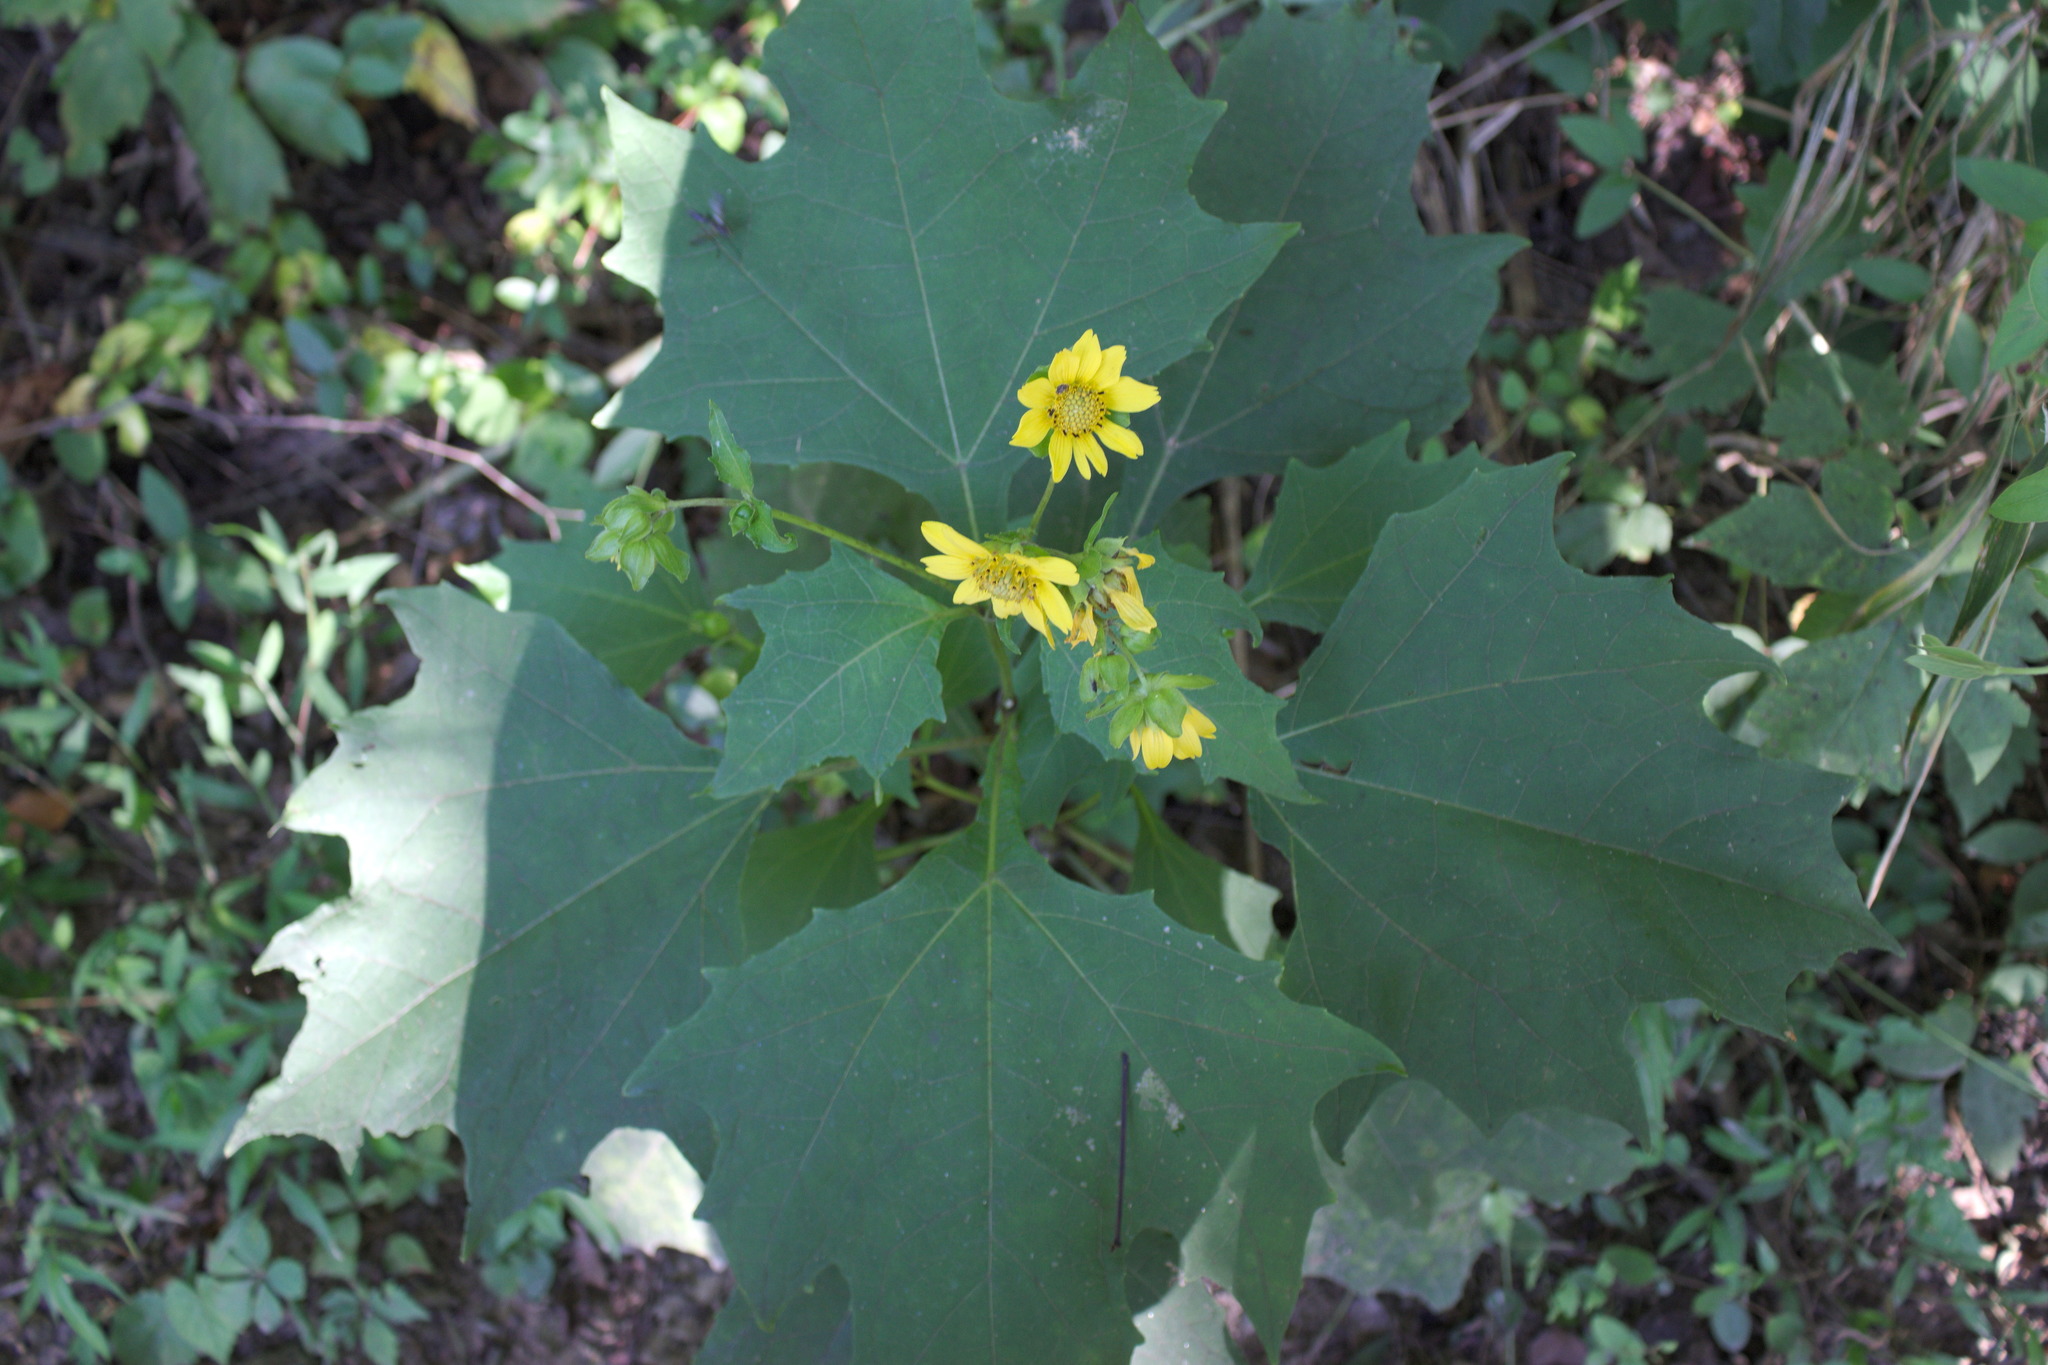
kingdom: Plantae
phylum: Tracheophyta
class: Magnoliopsida
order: Asterales
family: Asteraceae
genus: Smallanthus
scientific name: Smallanthus uvedalia
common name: Bear's-foot
